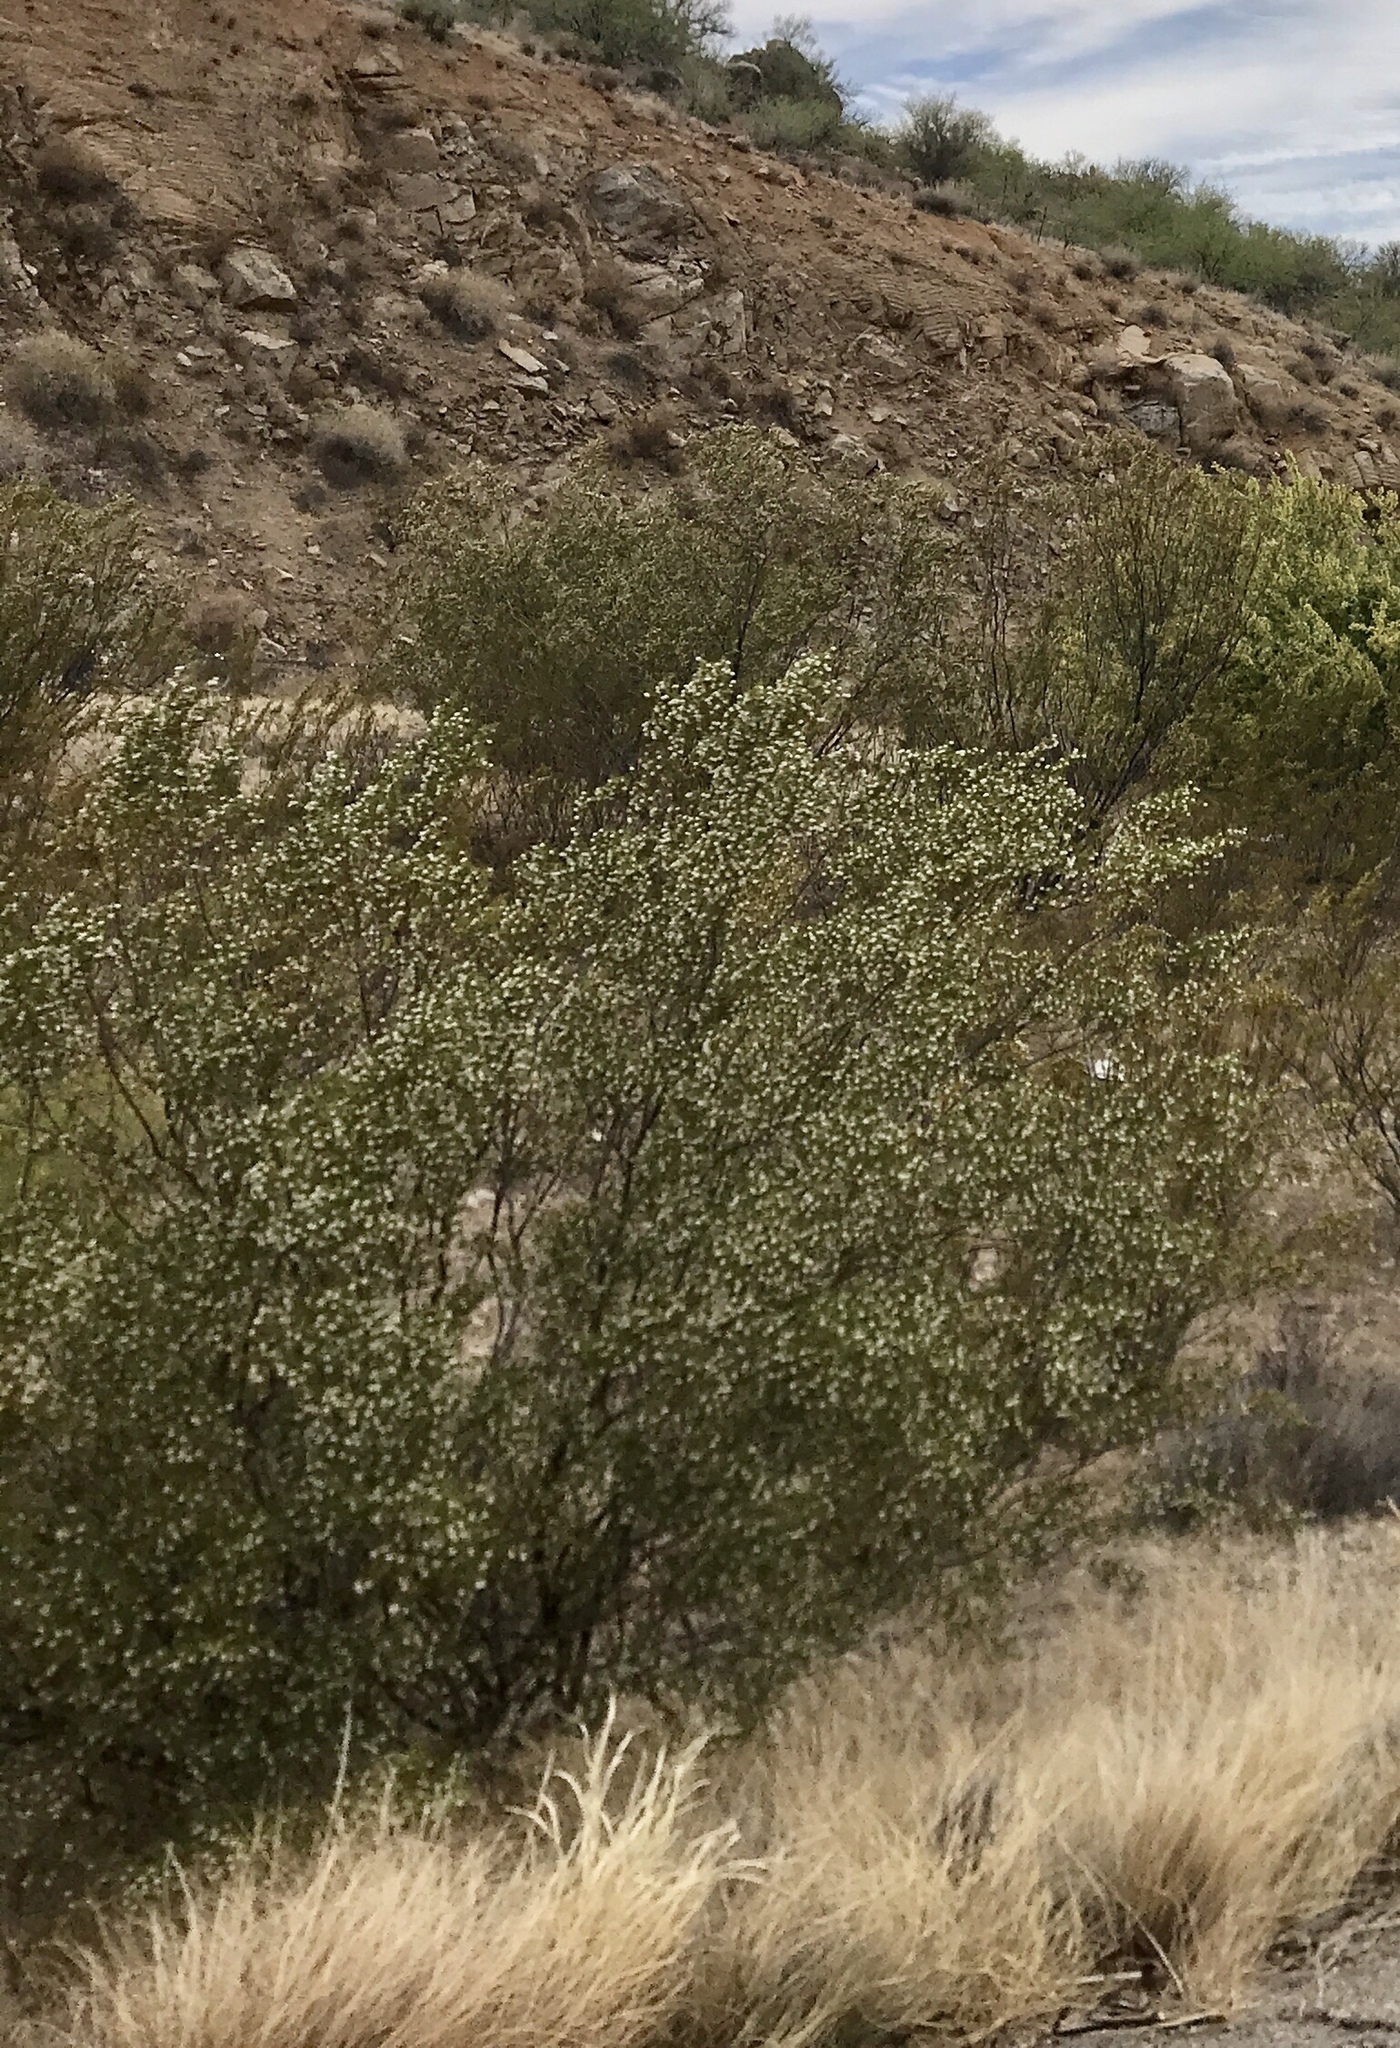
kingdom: Plantae
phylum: Tracheophyta
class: Magnoliopsida
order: Zygophyllales
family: Zygophyllaceae
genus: Larrea
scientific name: Larrea tridentata
